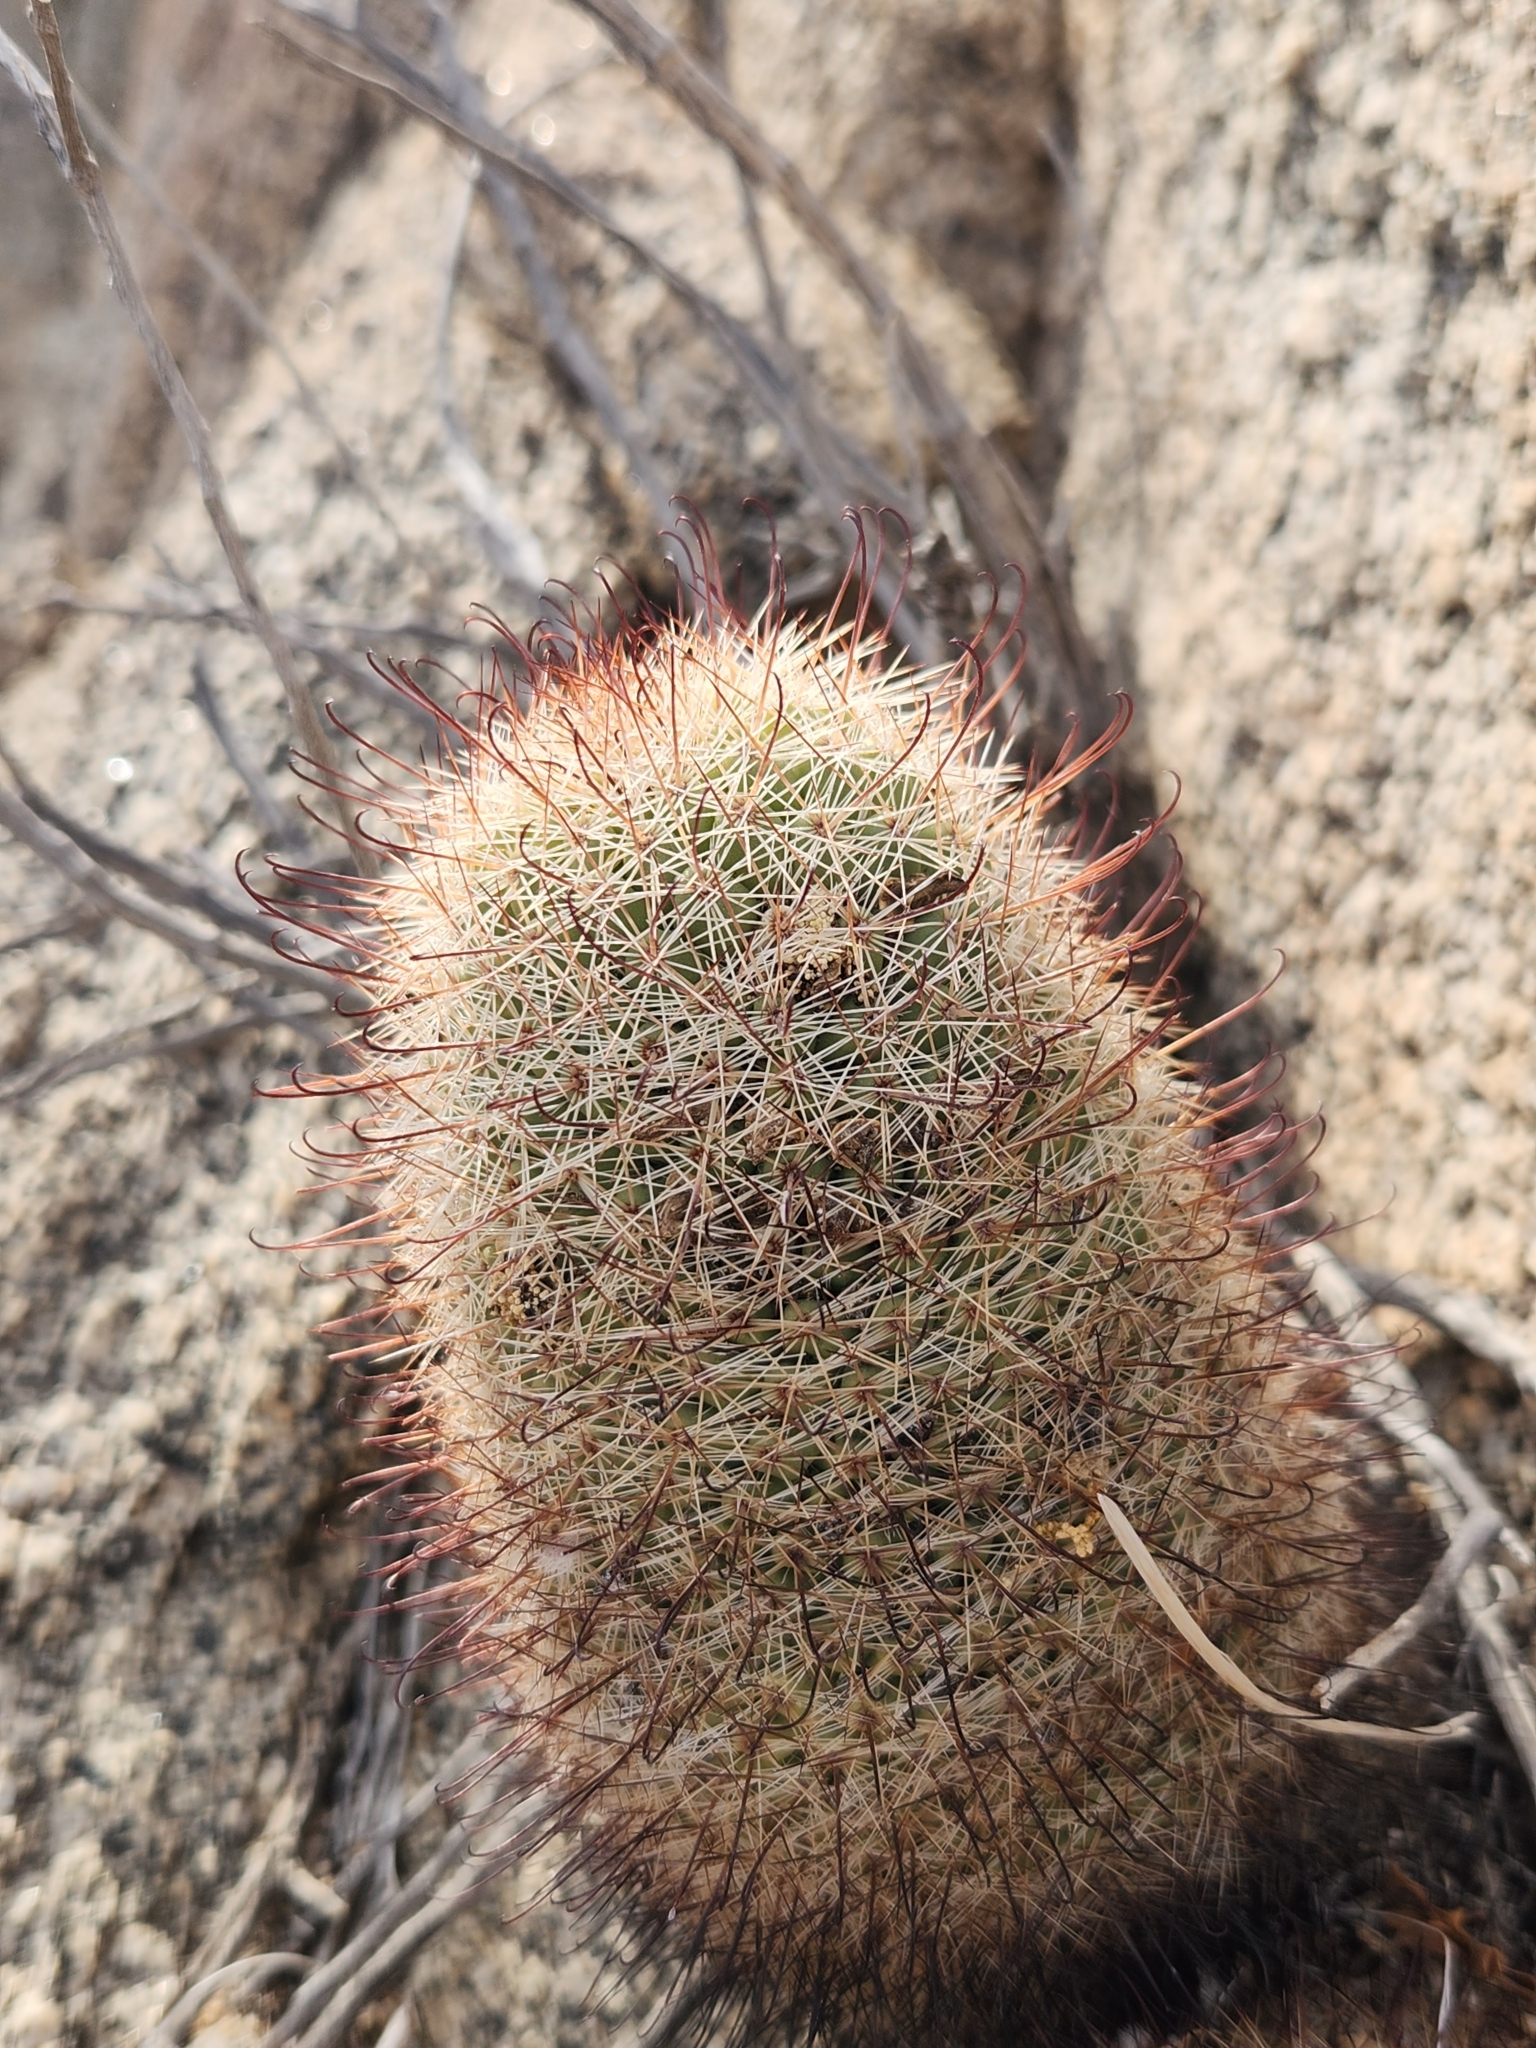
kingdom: Plantae
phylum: Tracheophyta
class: Magnoliopsida
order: Caryophyllales
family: Cactaceae
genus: Cochemiea
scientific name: Cochemiea dioica
